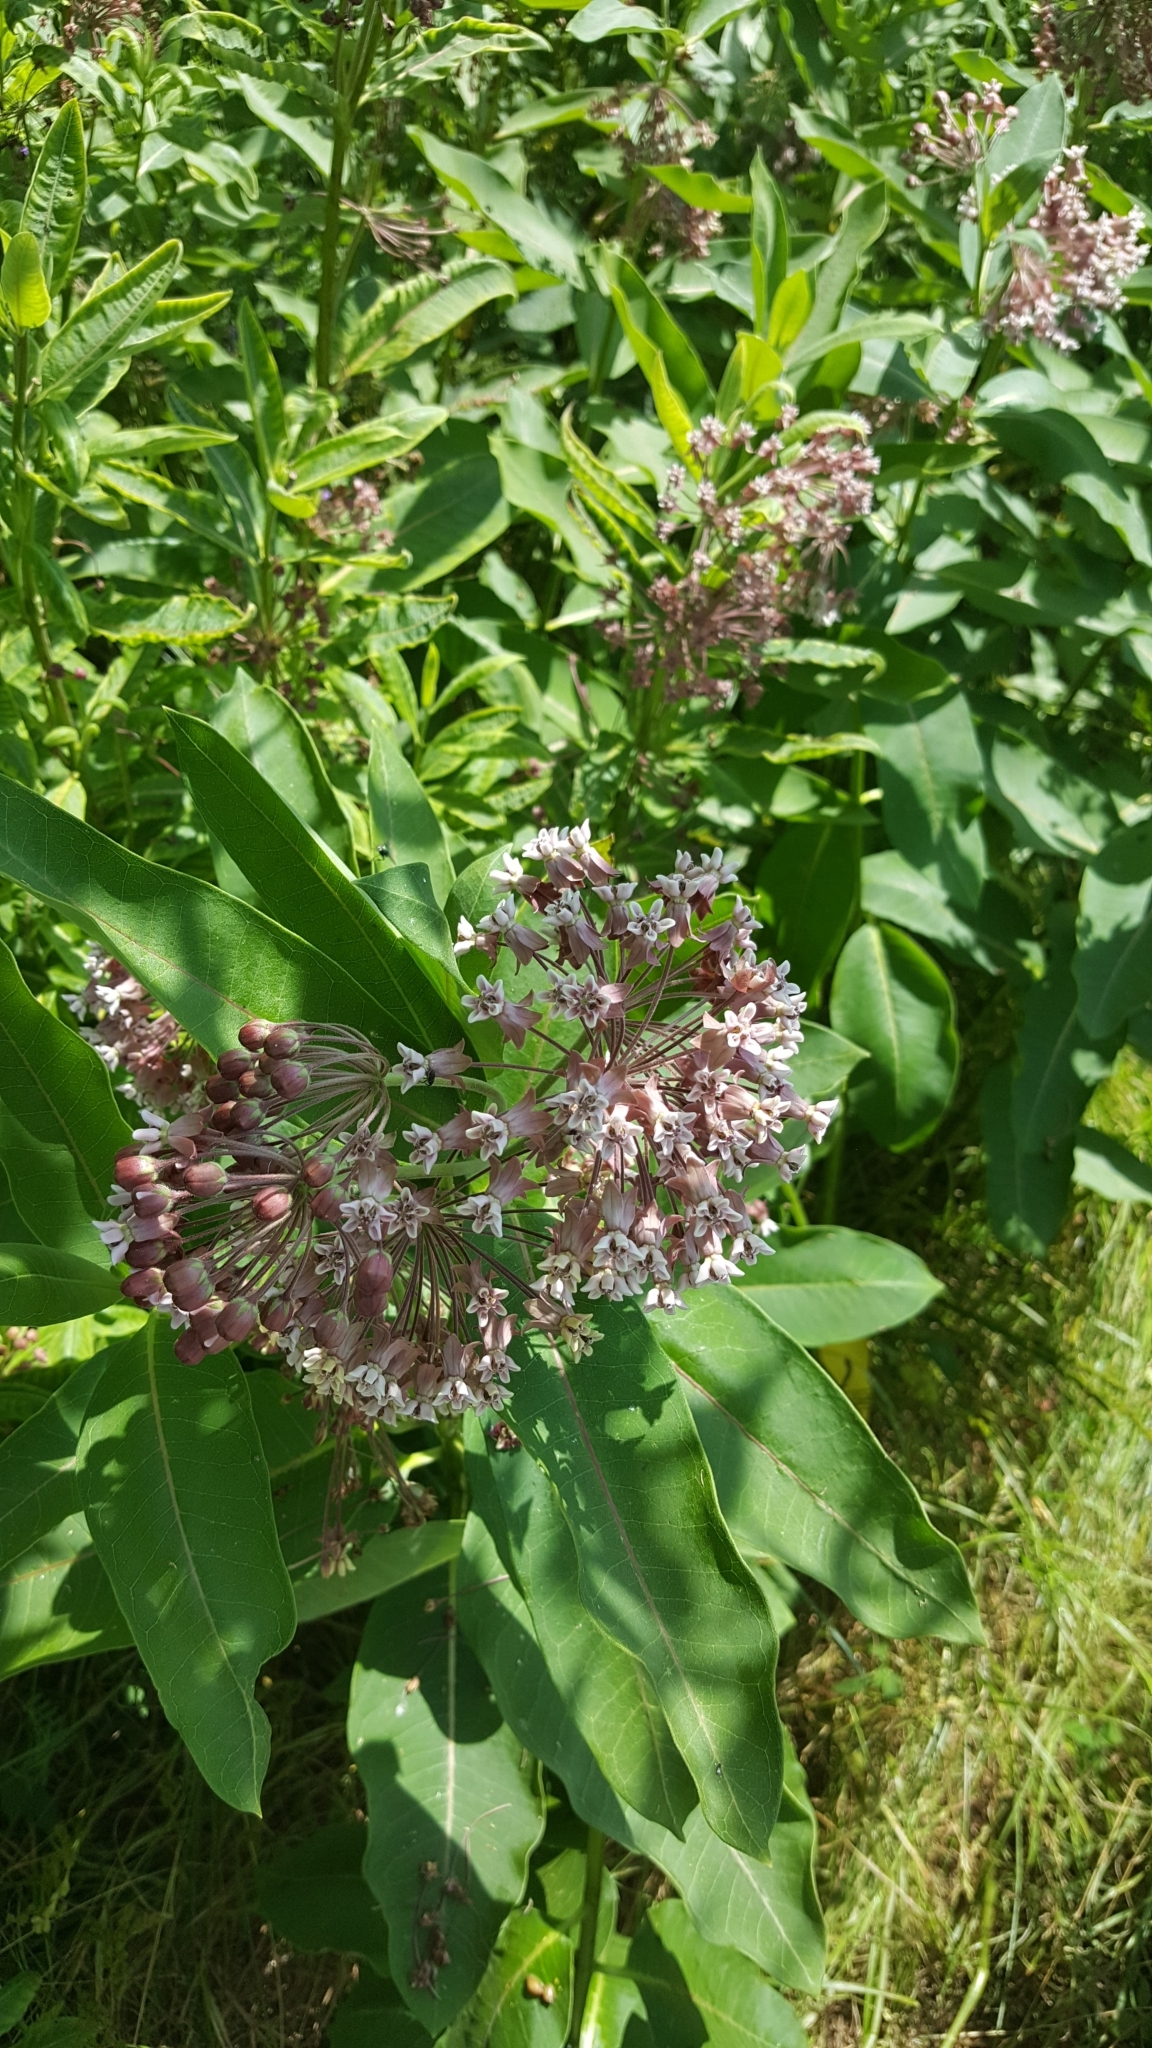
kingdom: Plantae
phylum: Tracheophyta
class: Magnoliopsida
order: Gentianales
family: Apocynaceae
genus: Asclepias
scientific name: Asclepias syriaca
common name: Common milkweed
